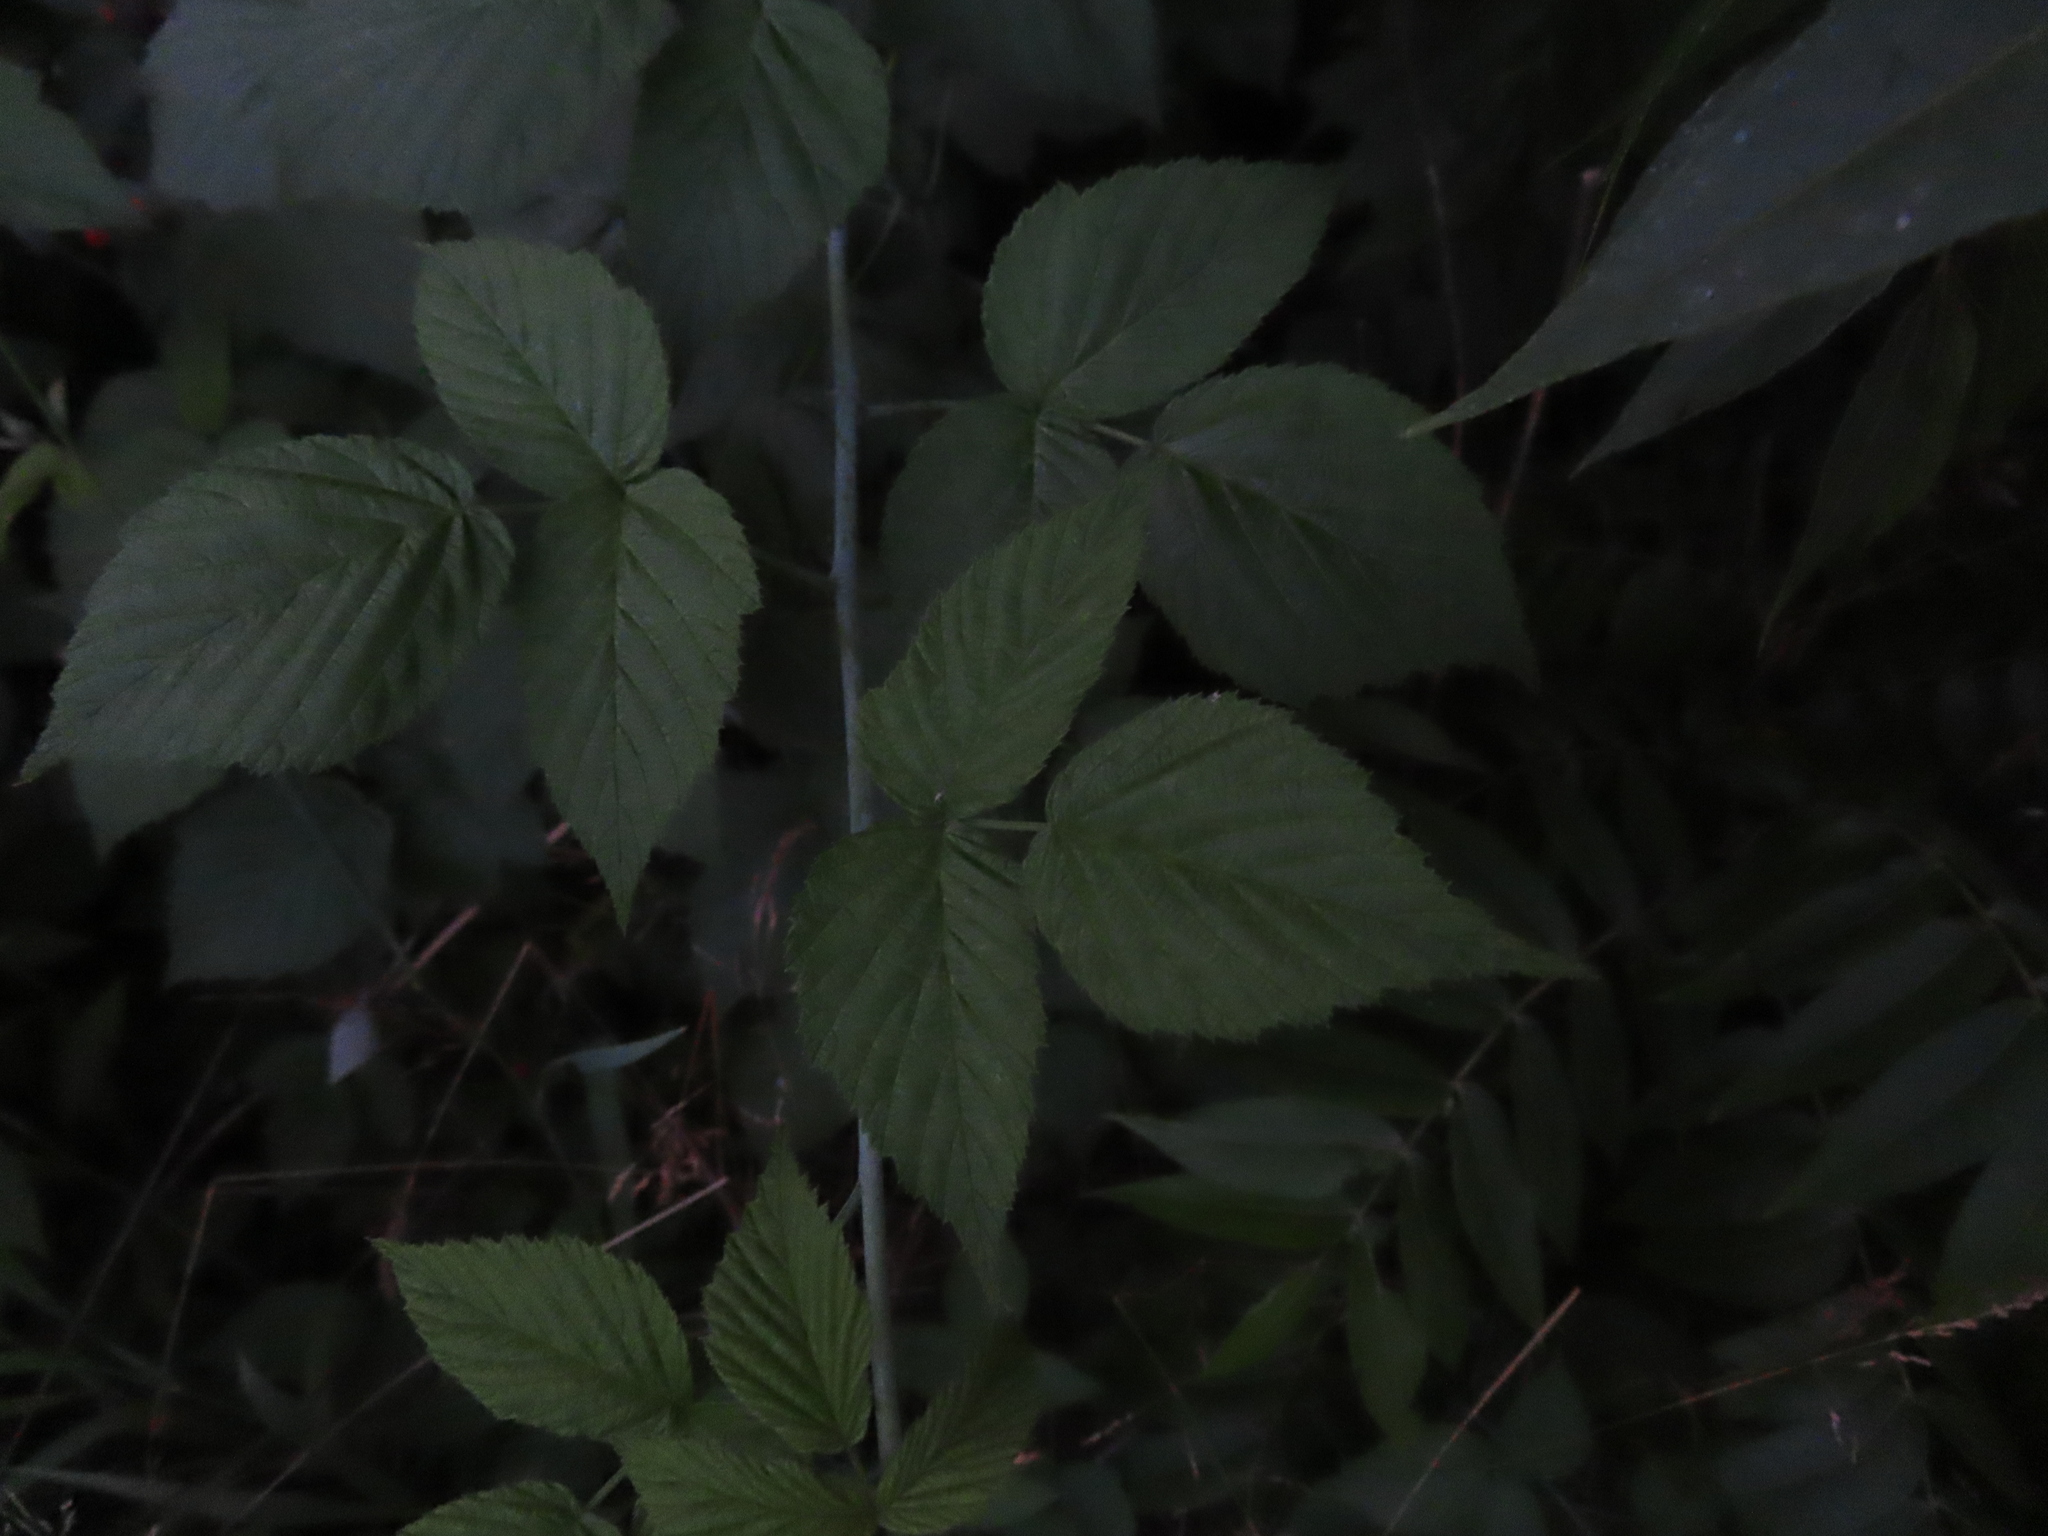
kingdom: Plantae
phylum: Tracheophyta
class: Magnoliopsida
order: Rosales
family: Rosaceae
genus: Rubus
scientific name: Rubus occidentalis
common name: Black raspberry
